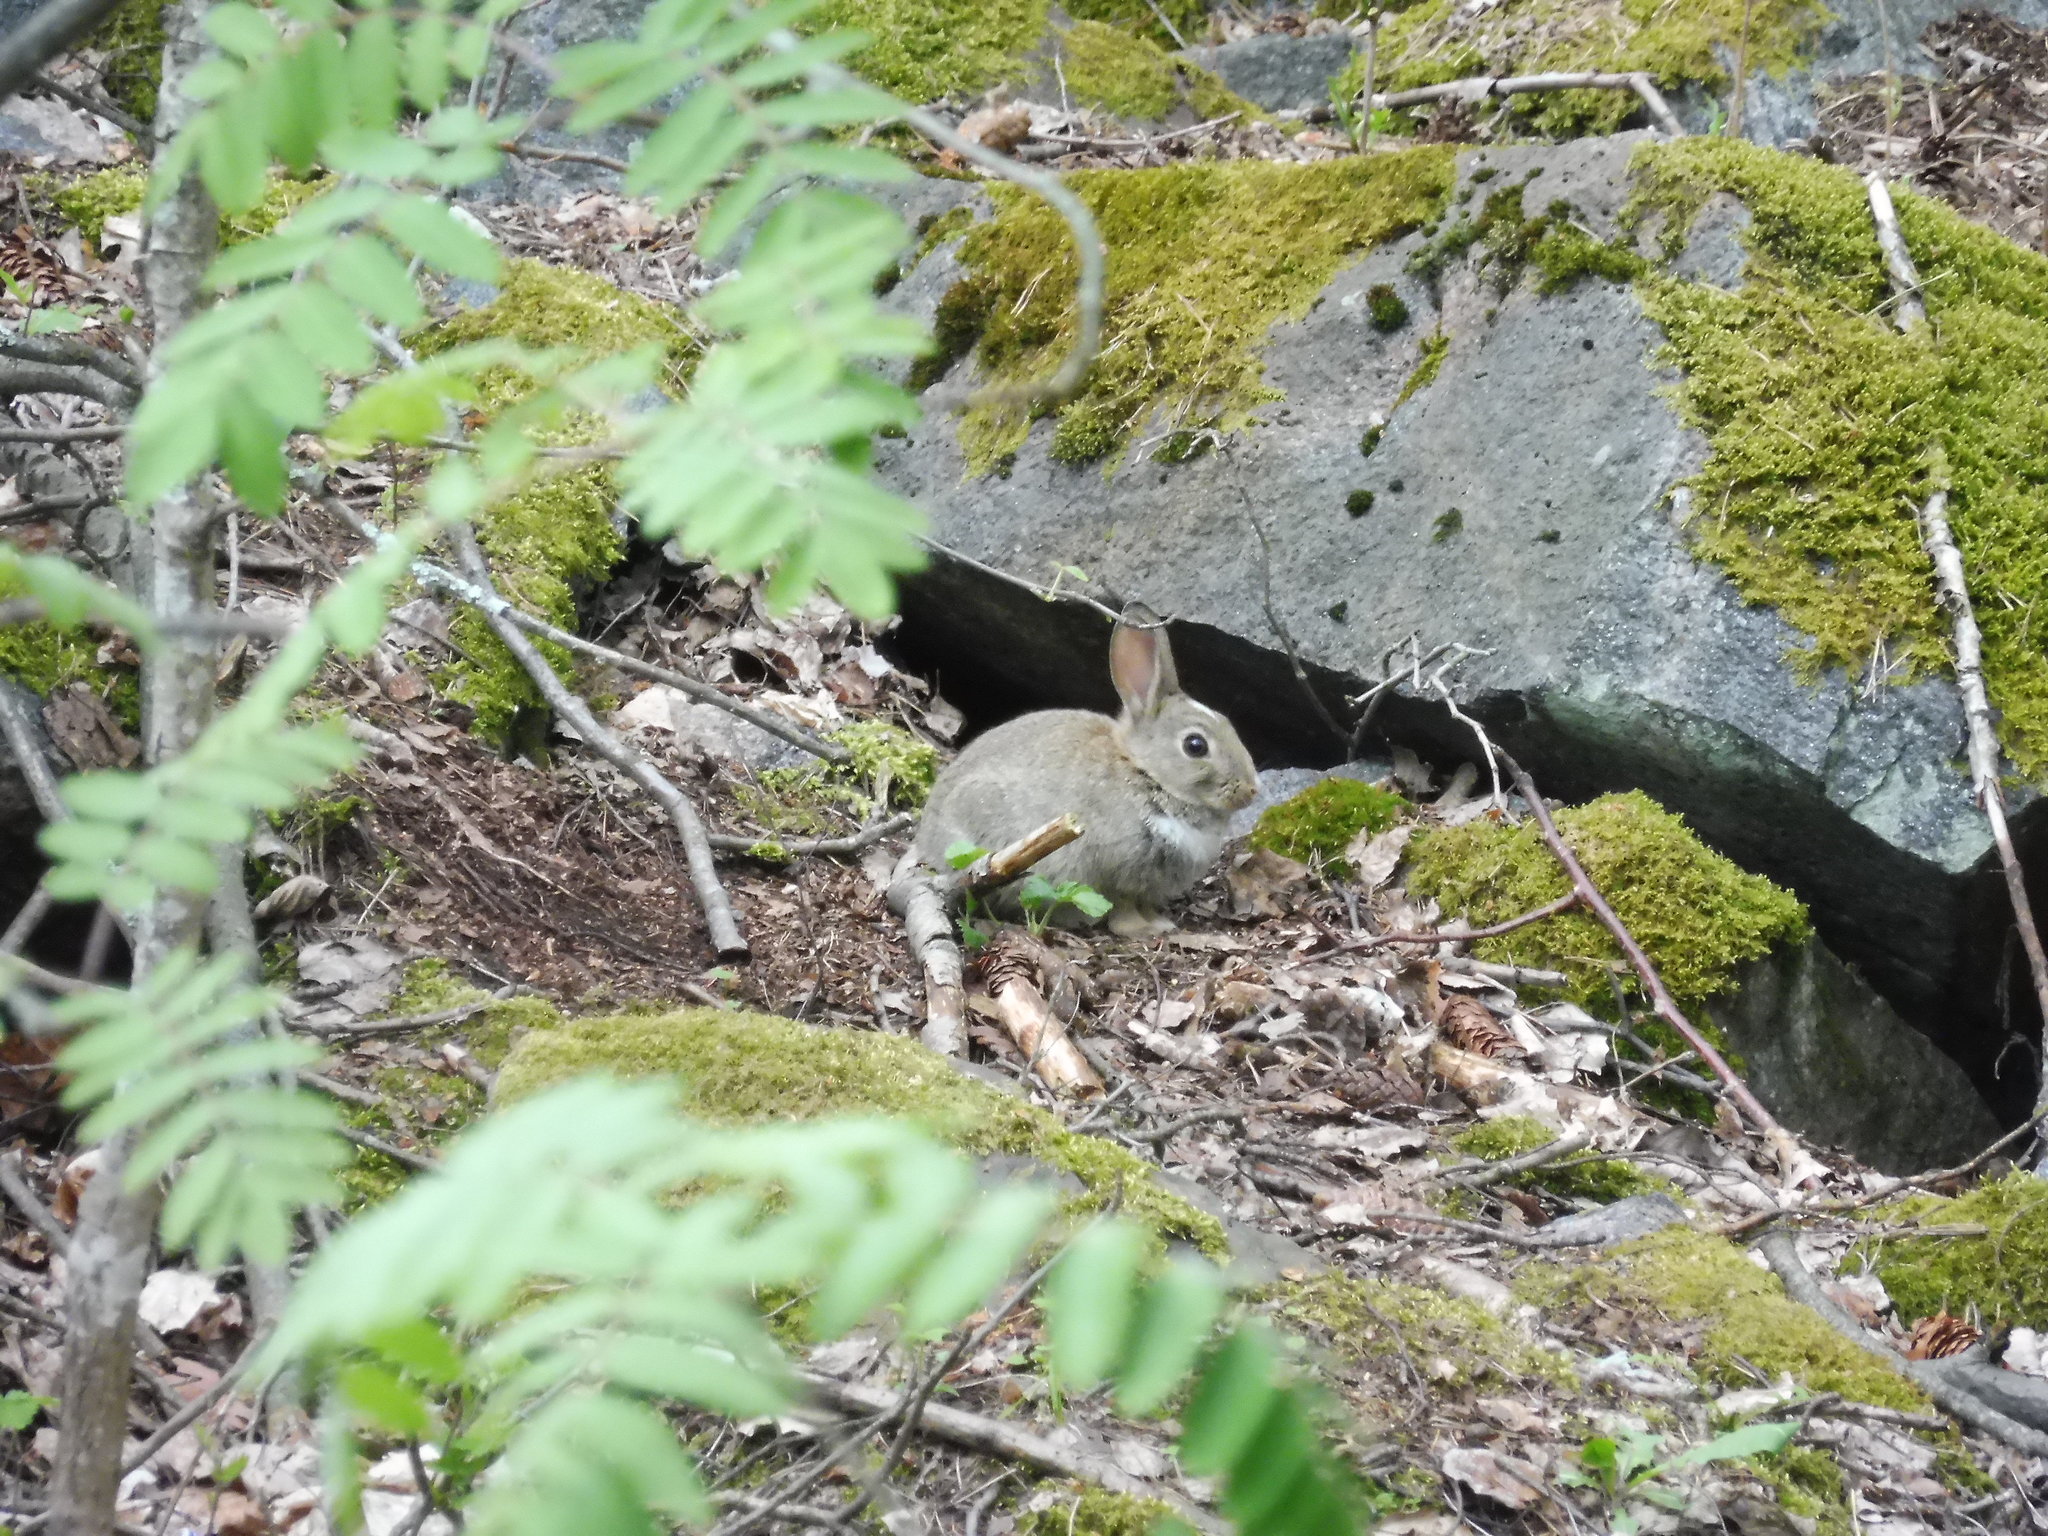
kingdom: Animalia
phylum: Chordata
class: Mammalia
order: Lagomorpha
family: Leporidae
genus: Oryctolagus
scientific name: Oryctolagus cuniculus
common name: European rabbit
